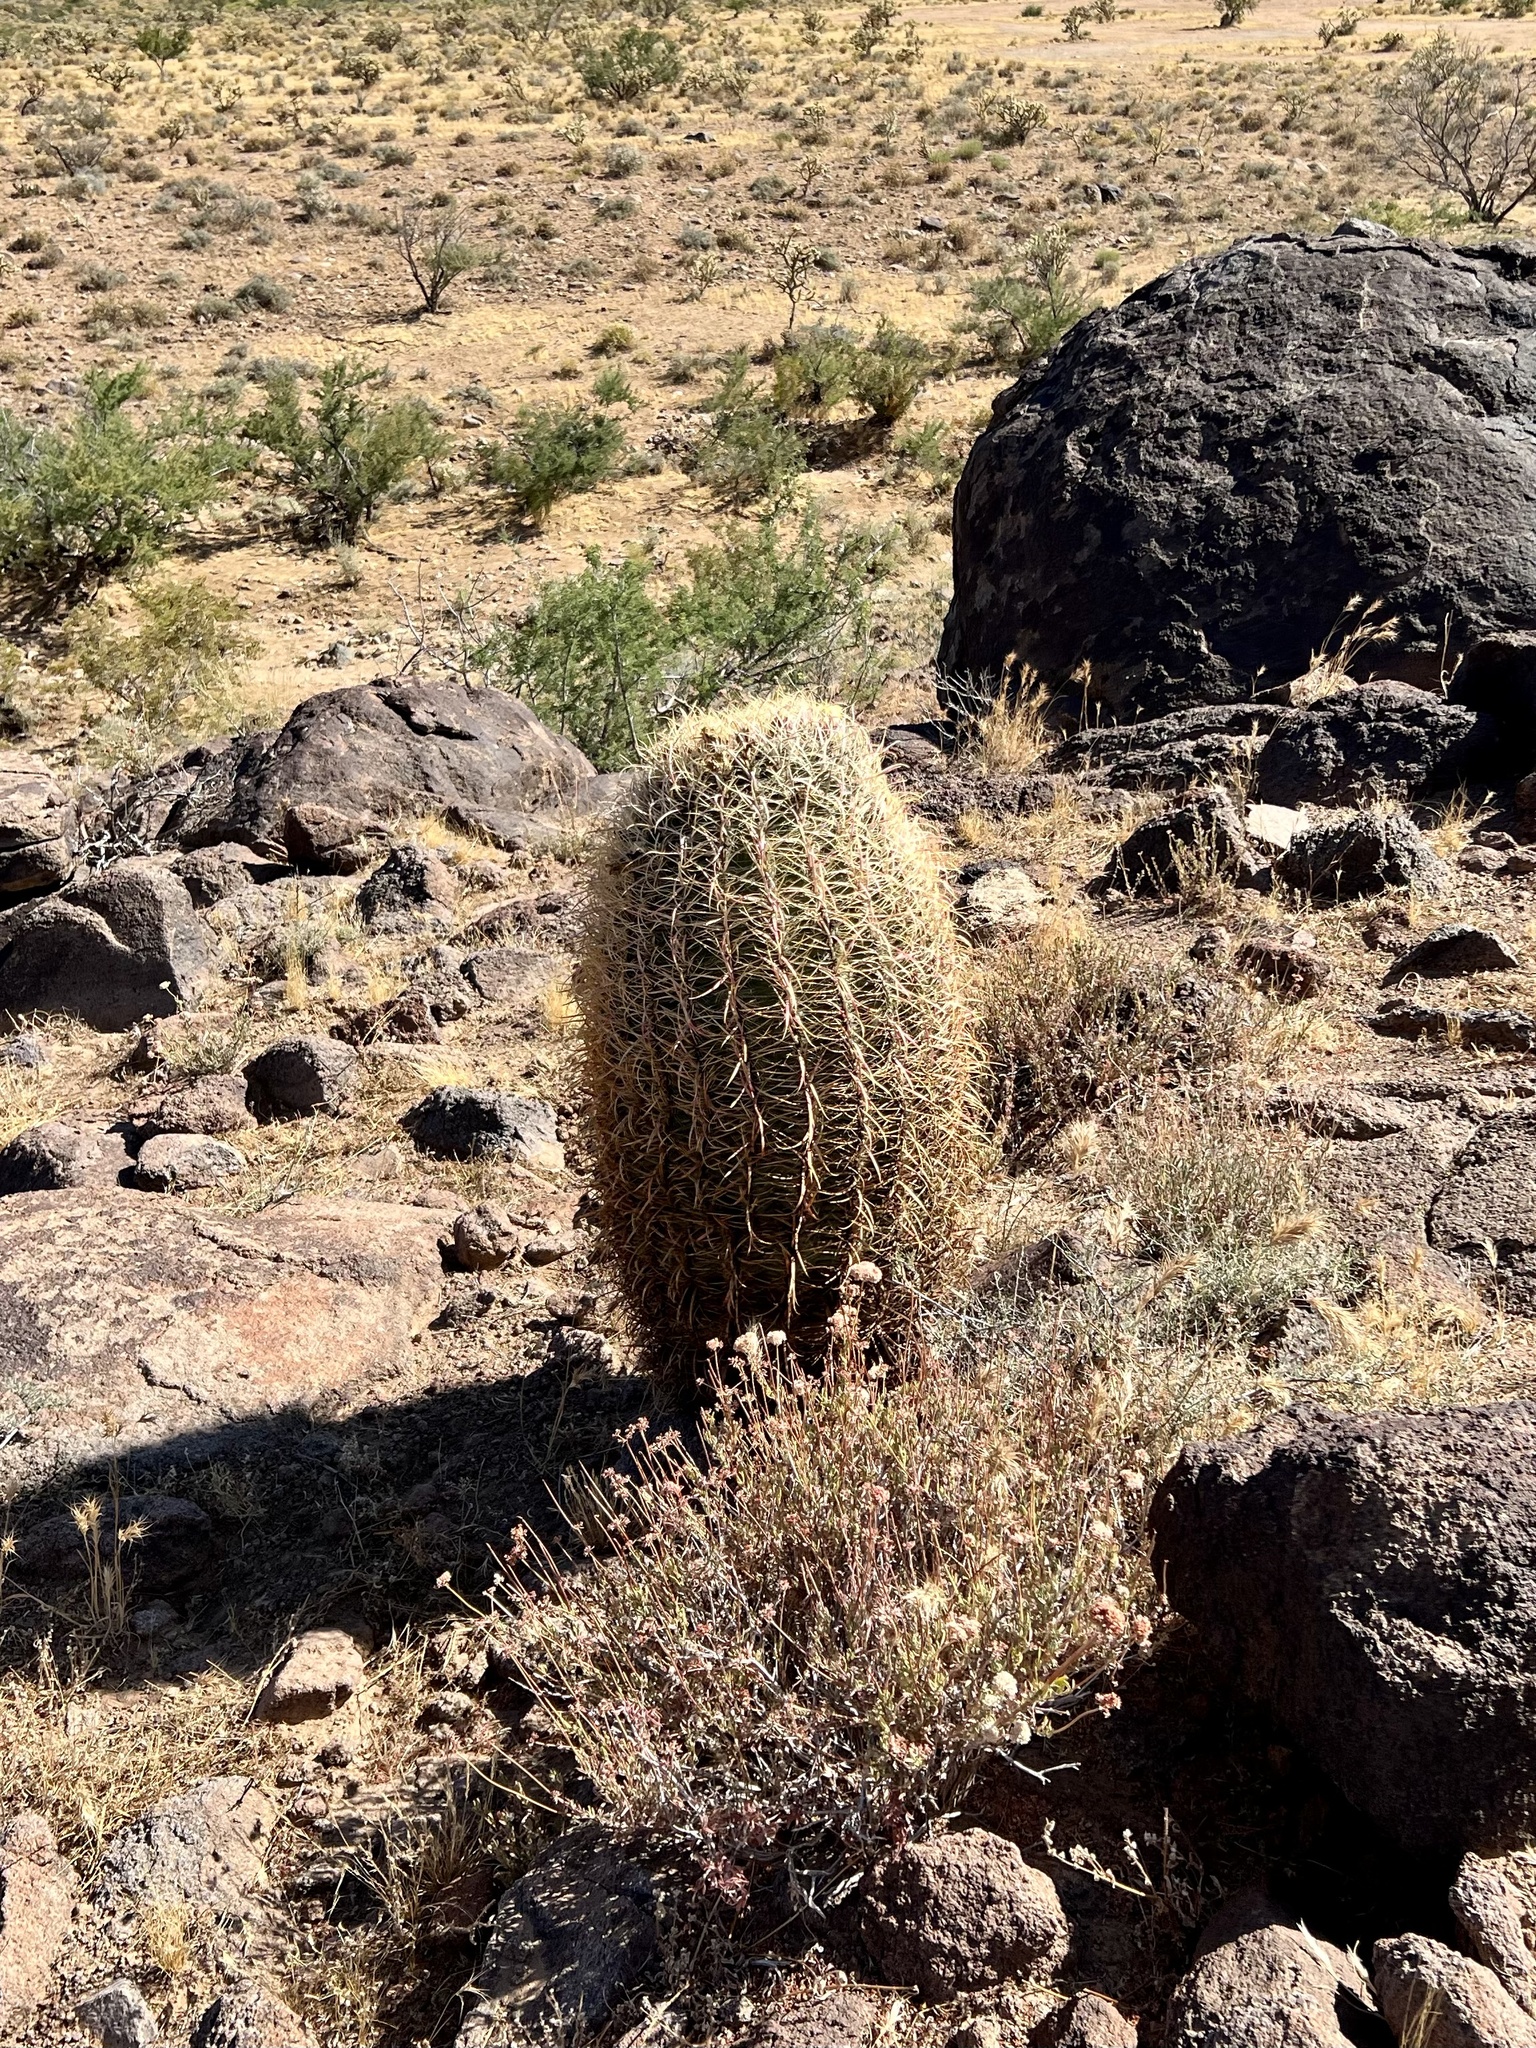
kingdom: Plantae
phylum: Tracheophyta
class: Magnoliopsida
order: Caryophyllales
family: Cactaceae
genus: Ferocactus
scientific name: Ferocactus cylindraceus
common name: California barrel cactus
